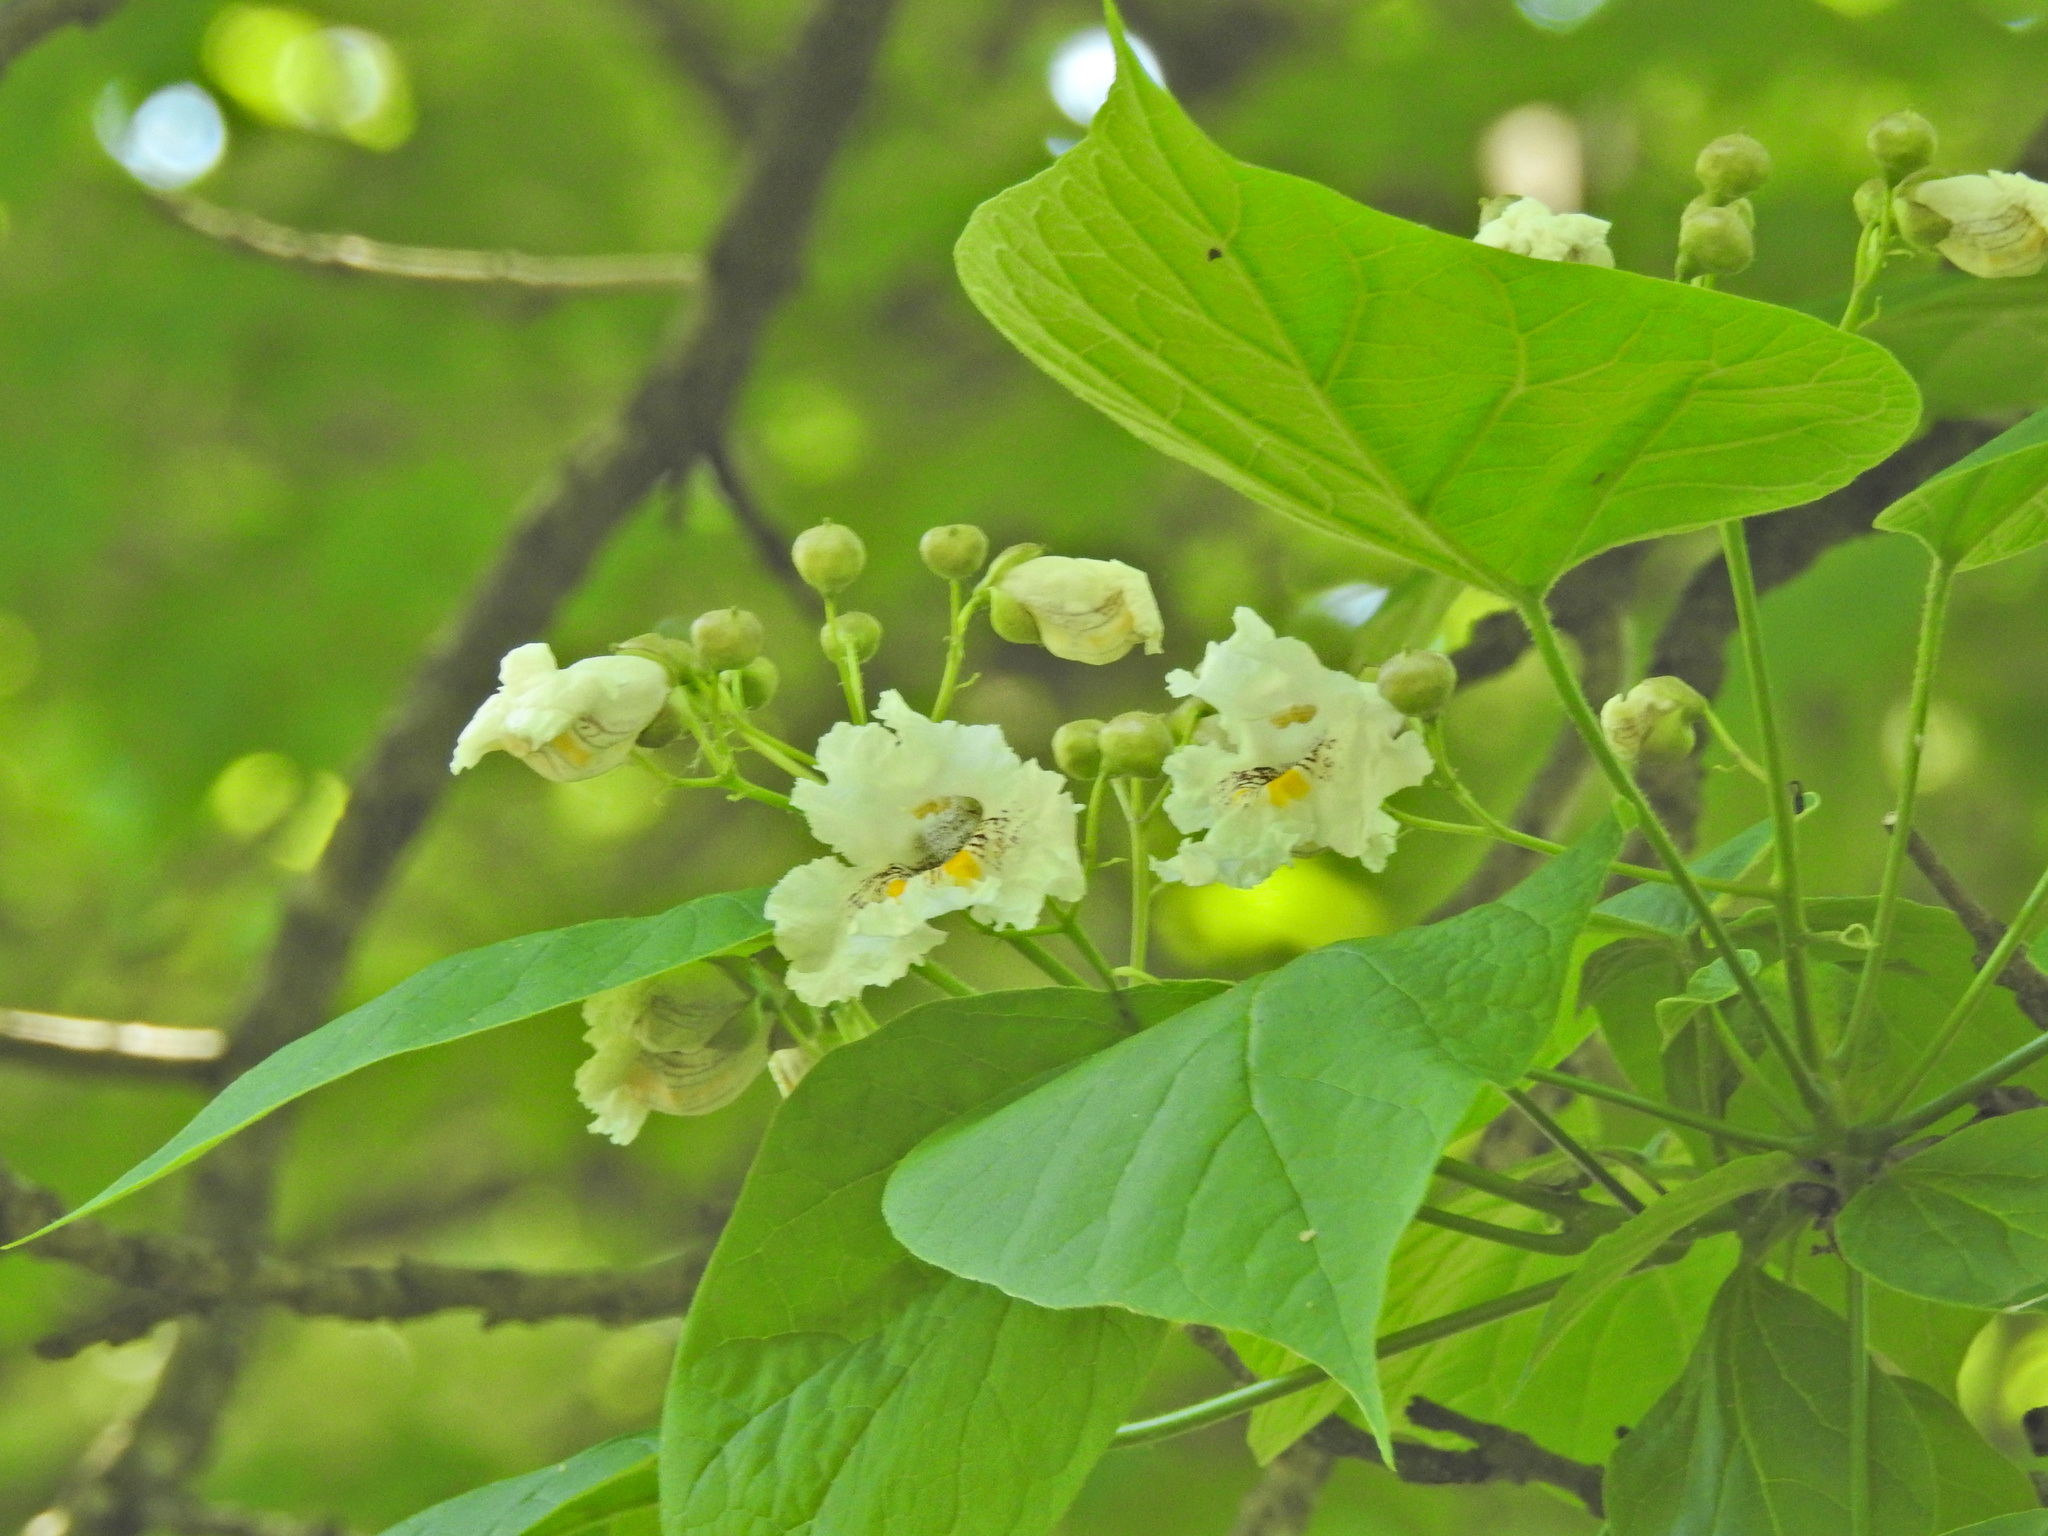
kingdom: Plantae
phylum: Tracheophyta
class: Magnoliopsida
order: Lamiales
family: Bignoniaceae
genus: Catalpa
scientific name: Catalpa speciosa
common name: Northern catalpa
